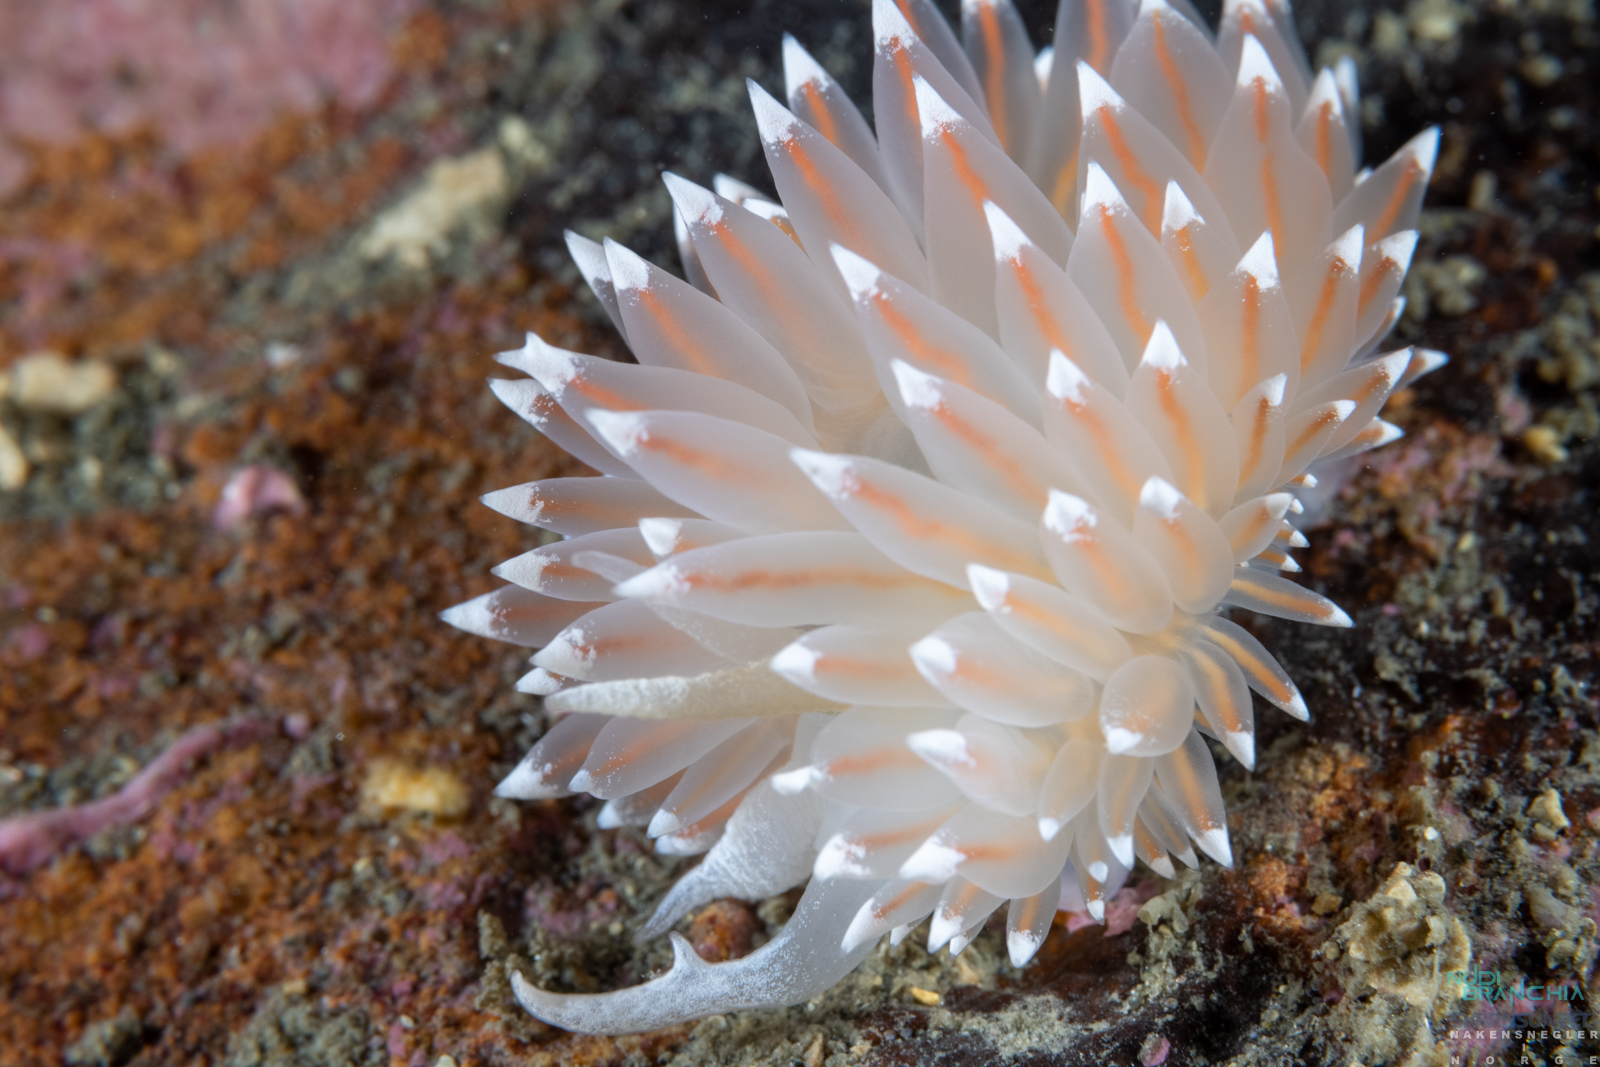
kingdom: Animalia
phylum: Mollusca
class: Gastropoda
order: Nudibranchia
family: Coryphellidae
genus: Coryphella
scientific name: Coryphella nobilis
